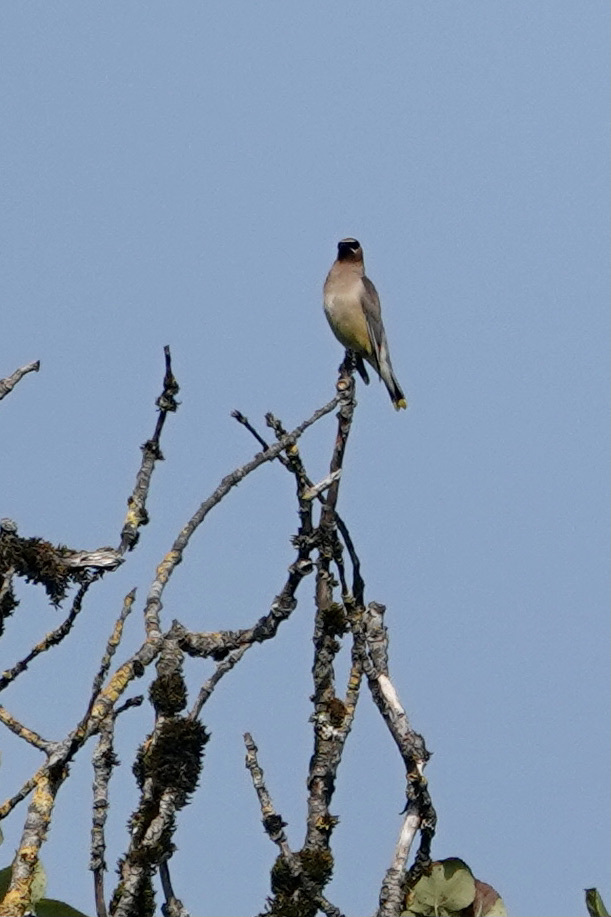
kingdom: Animalia
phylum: Chordata
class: Aves
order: Passeriformes
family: Bombycillidae
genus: Bombycilla
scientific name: Bombycilla cedrorum
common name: Cedar waxwing
